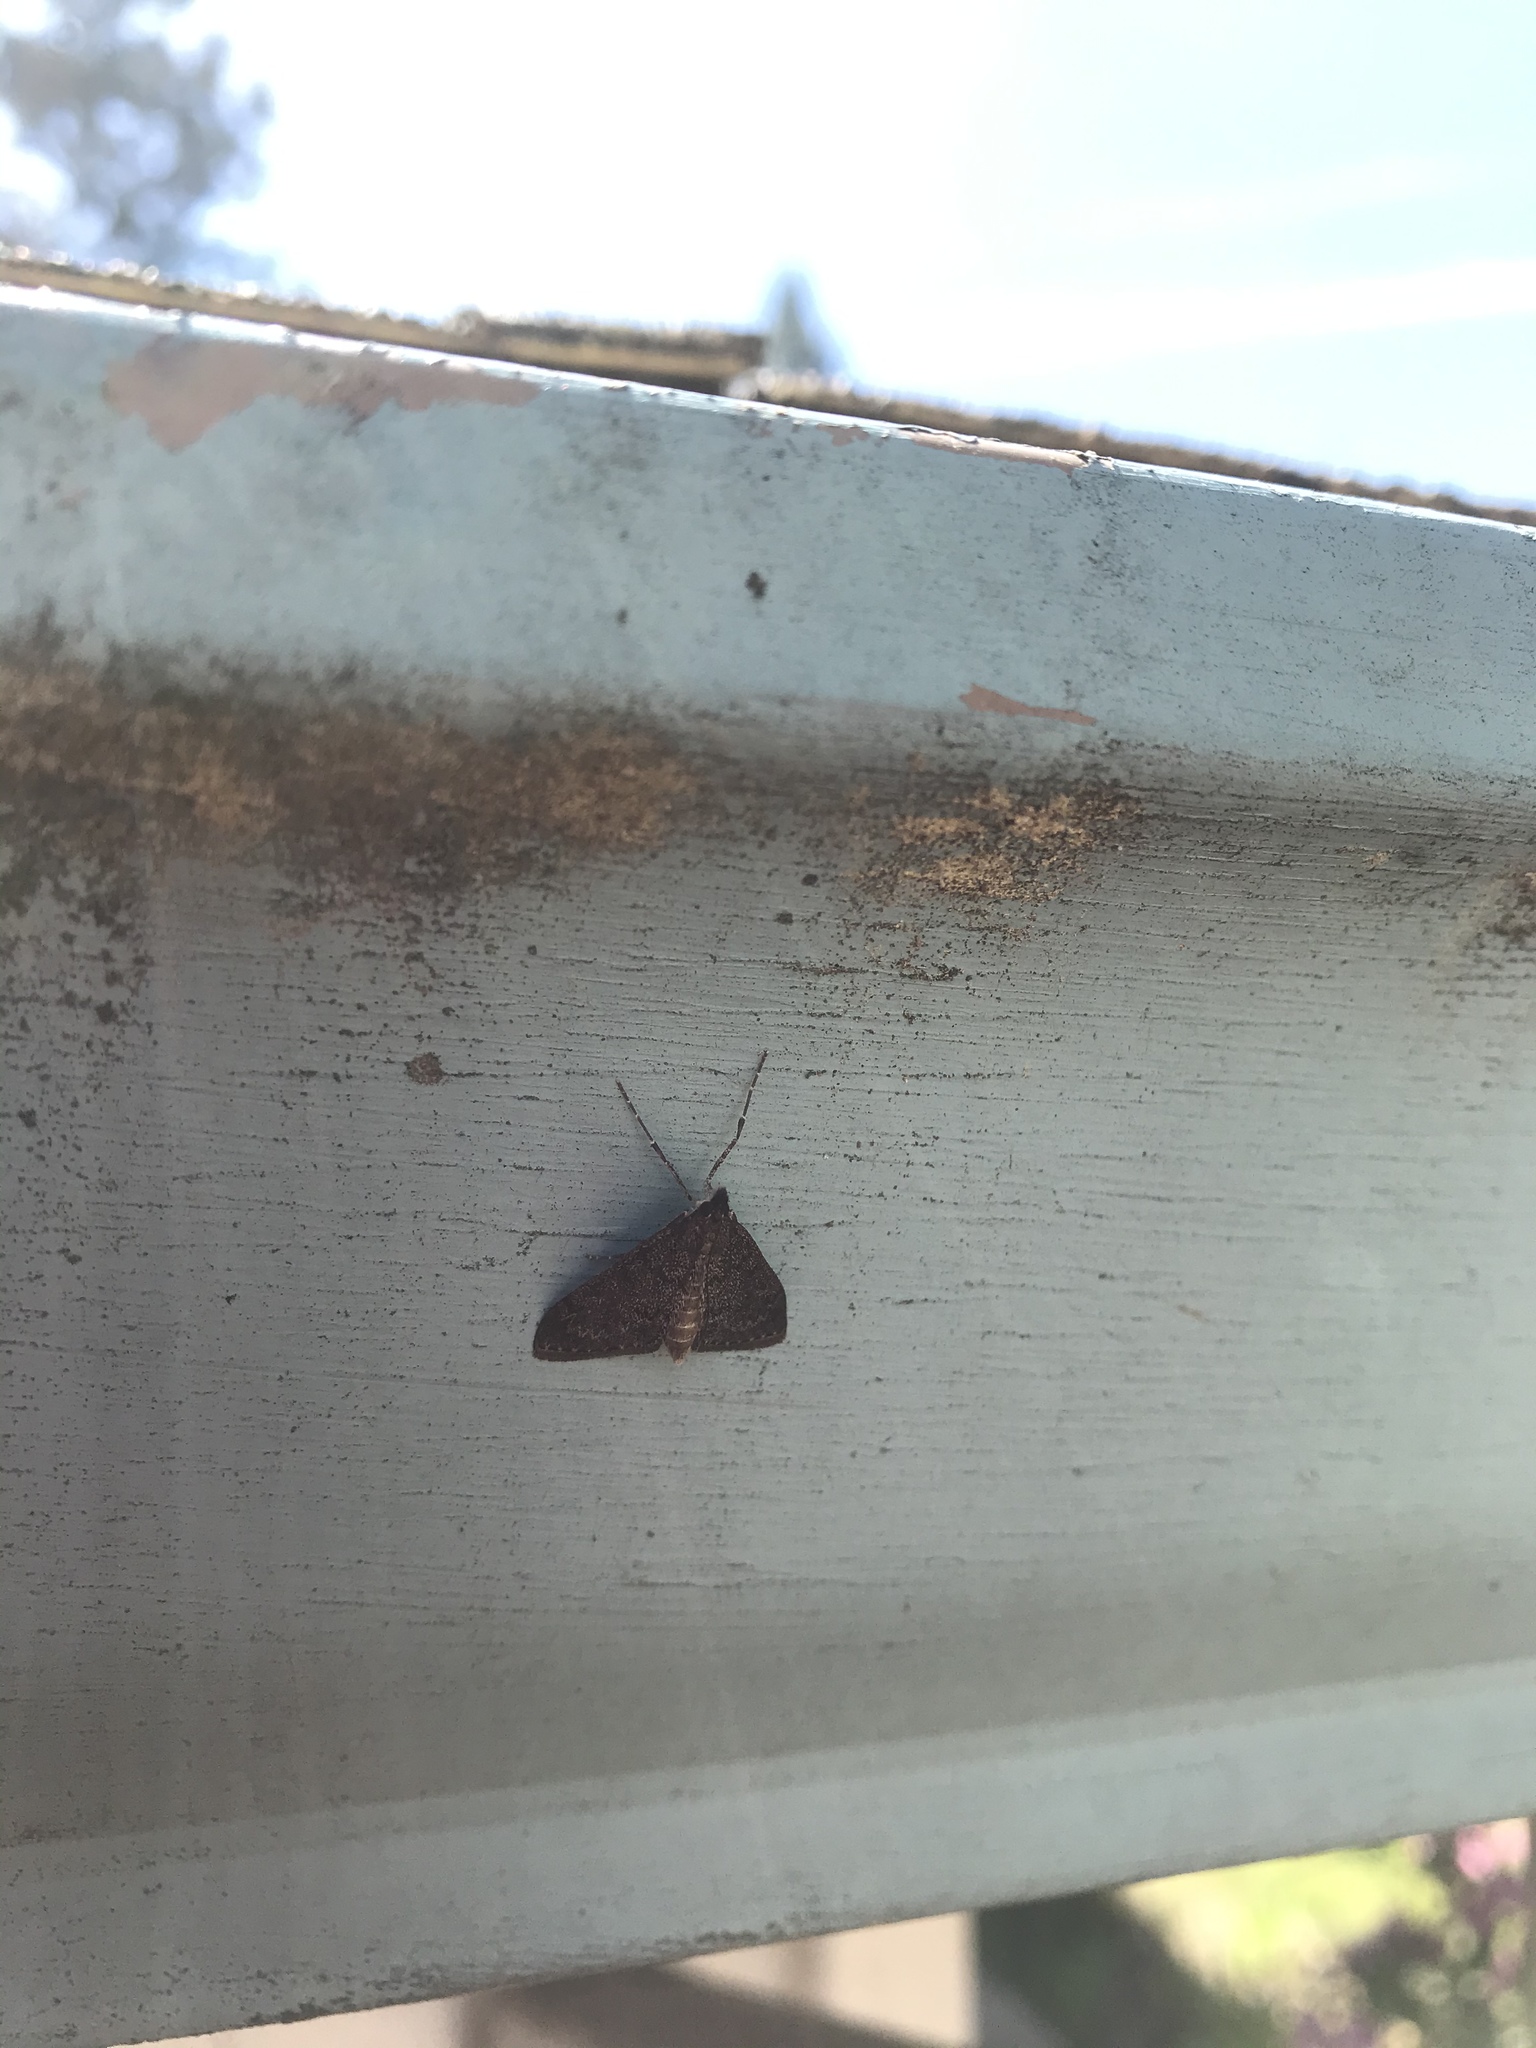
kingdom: Animalia
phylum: Arthropoda
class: Insecta
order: Lepidoptera
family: Crambidae
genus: Saucrobotys
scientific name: Saucrobotys fumoferalis
